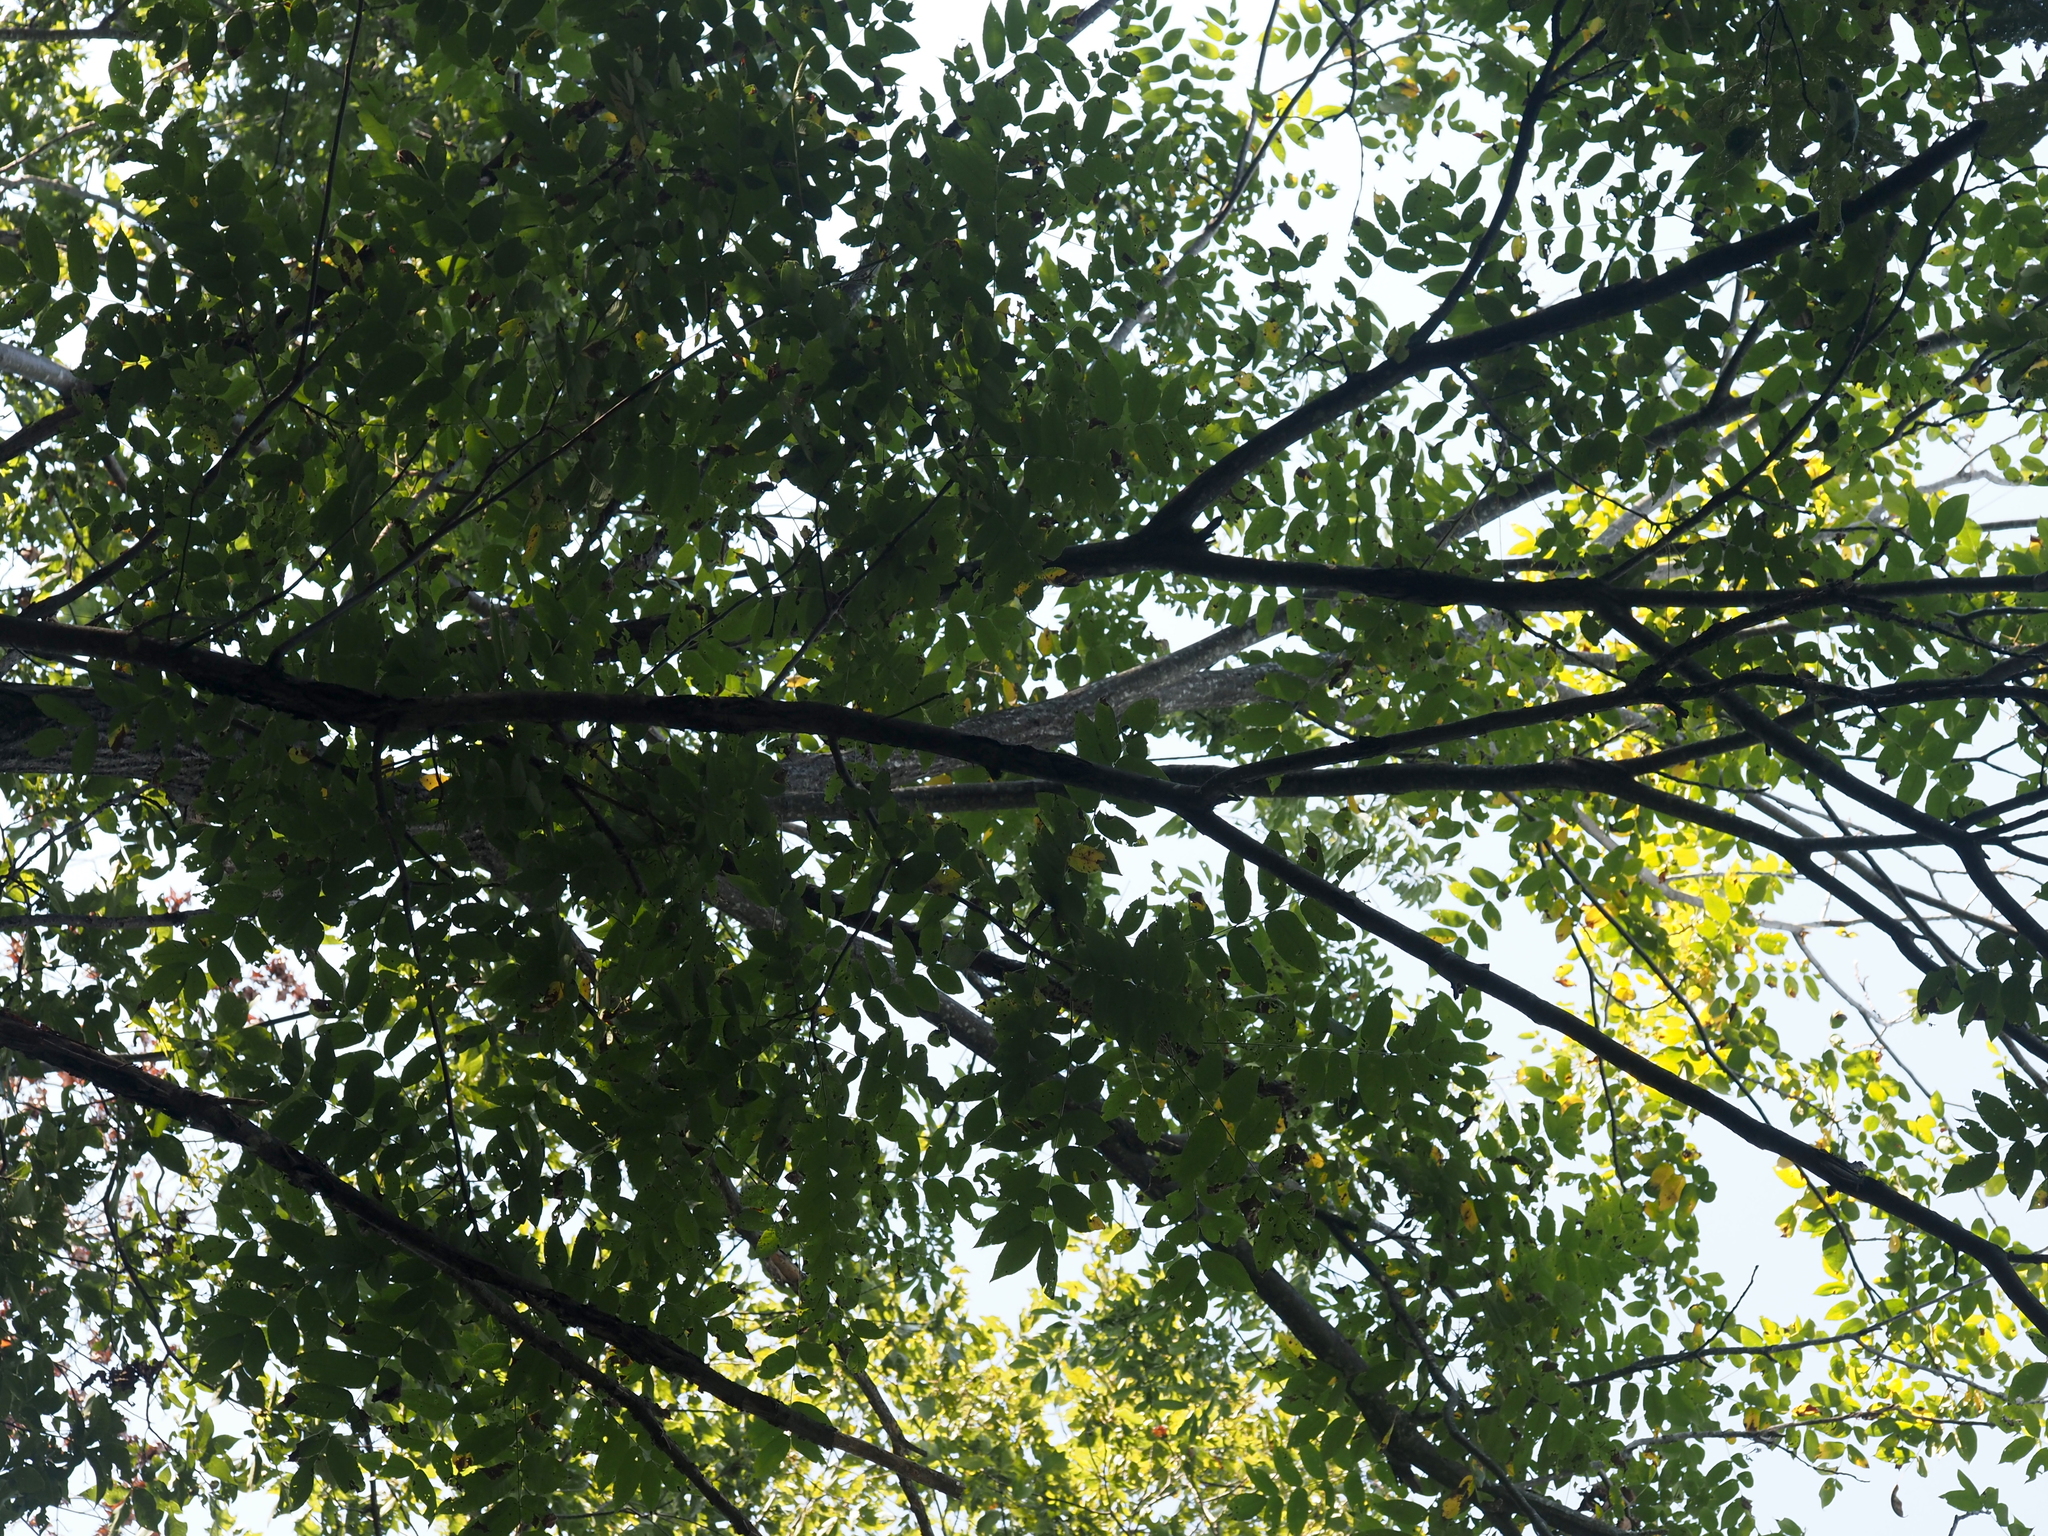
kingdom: Plantae
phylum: Tracheophyta
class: Magnoliopsida
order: Fagales
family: Juglandaceae
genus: Juglans
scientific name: Juglans cinerea
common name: Butternut
